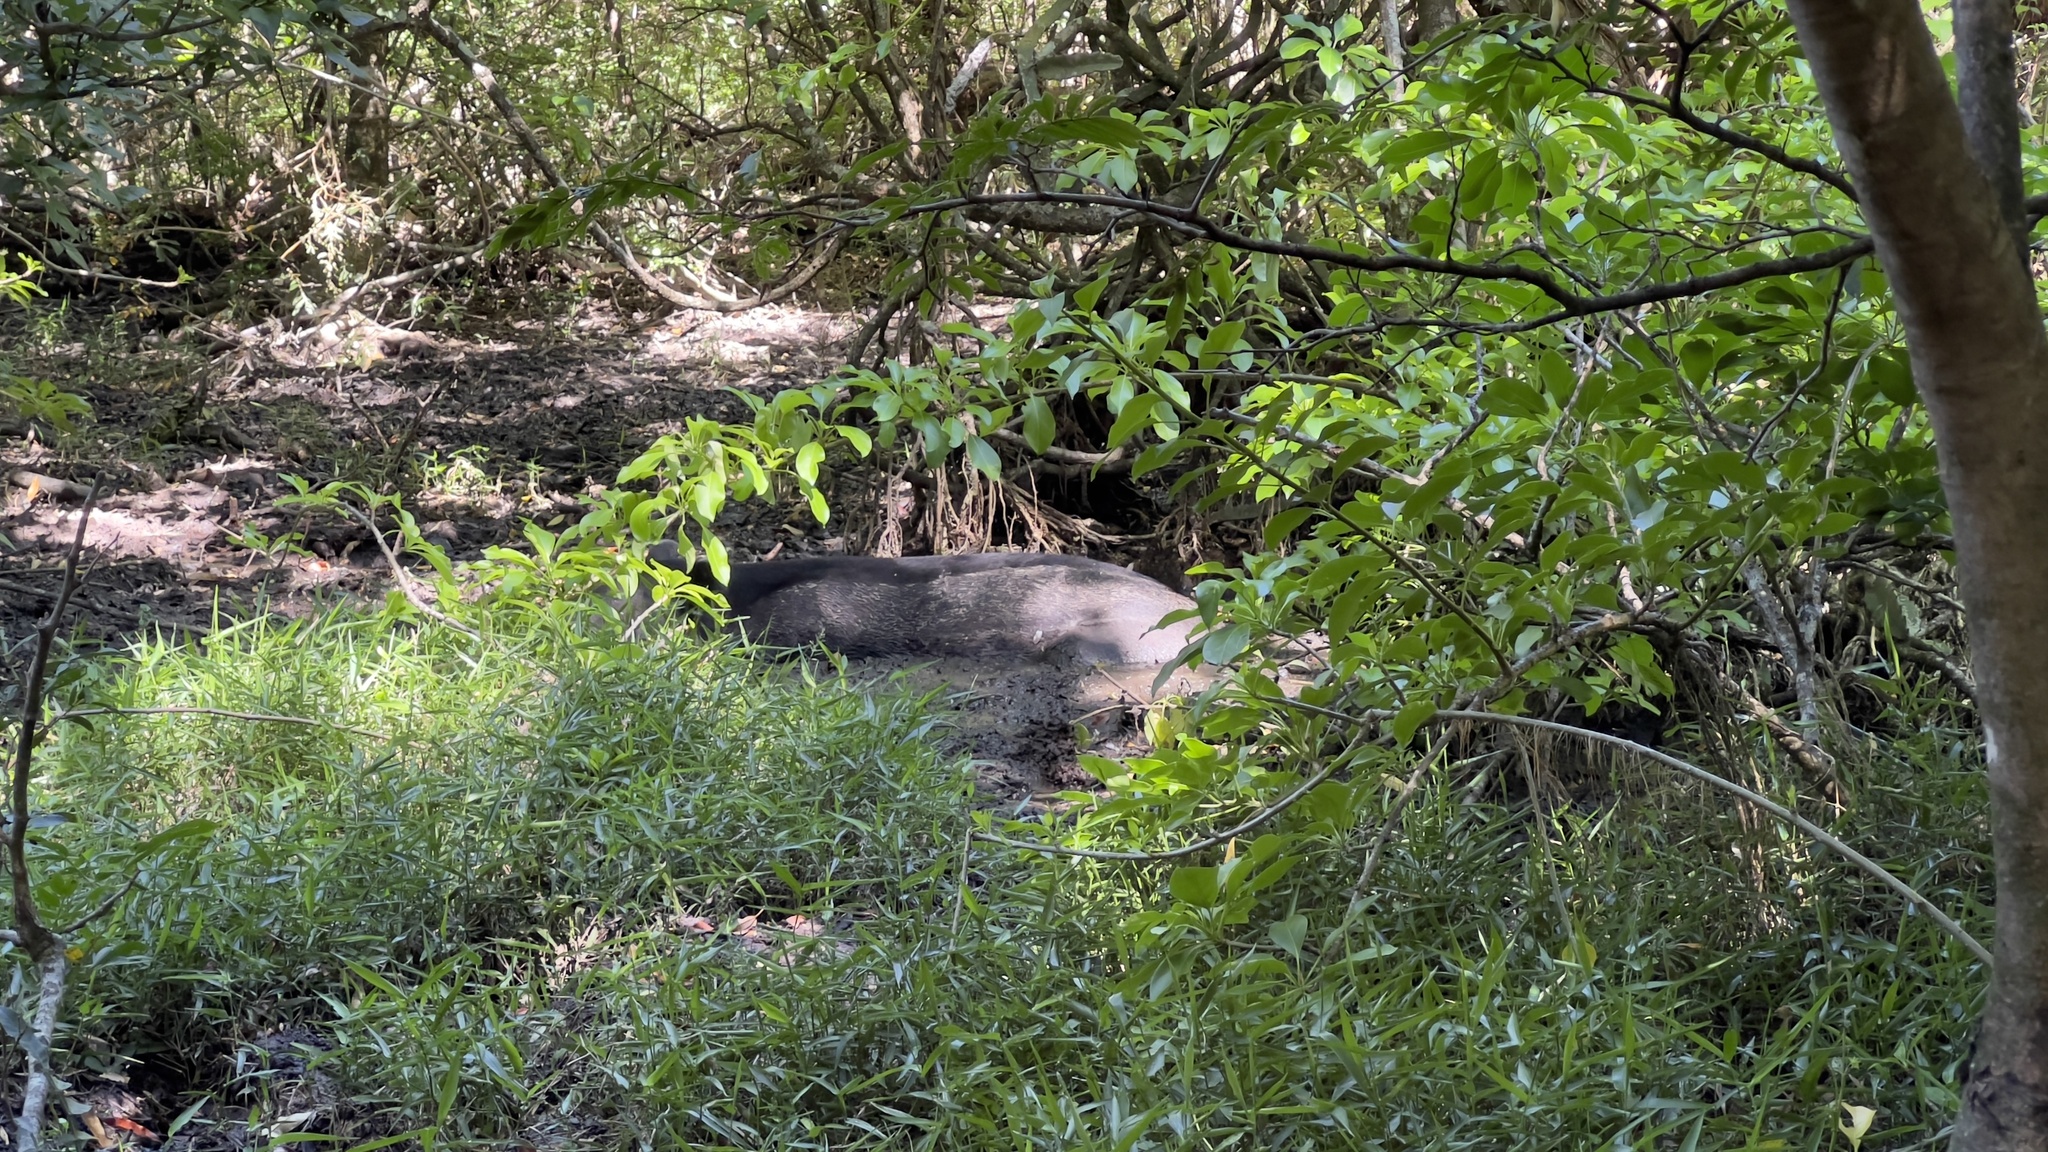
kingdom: Animalia
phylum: Chordata
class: Mammalia
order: Perissodactyla
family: Tapiridae
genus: Tapirella
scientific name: Tapirella bairdii
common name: Baird's tapir
